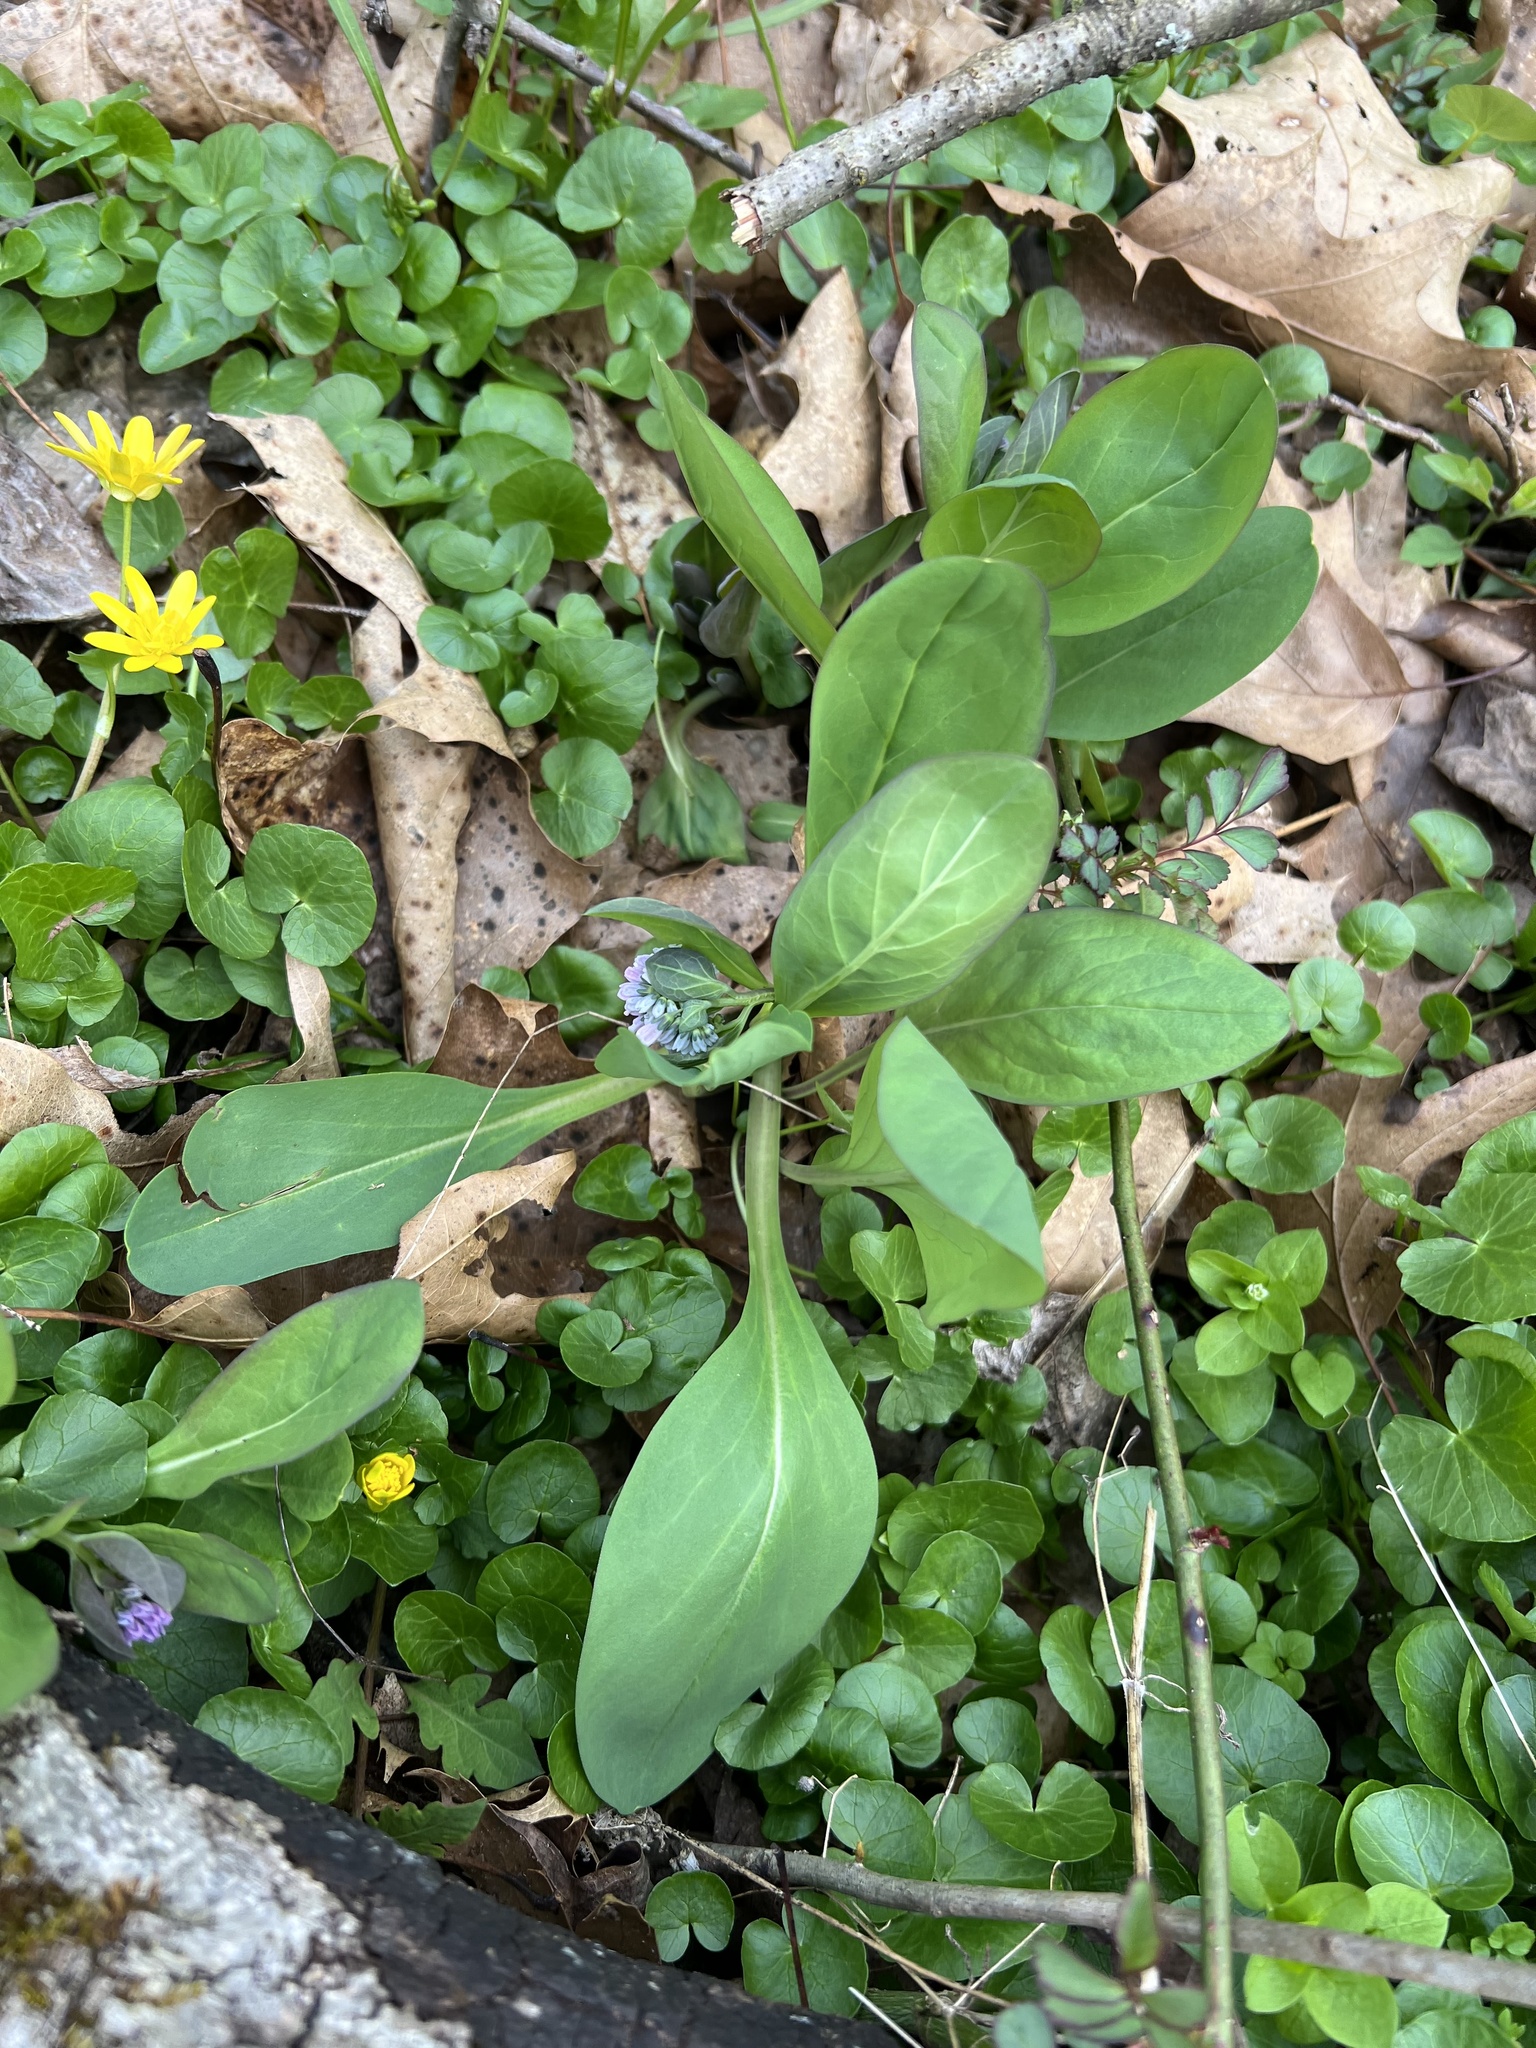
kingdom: Plantae
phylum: Tracheophyta
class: Magnoliopsida
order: Boraginales
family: Boraginaceae
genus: Mertensia
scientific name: Mertensia virginica
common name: Virginia bluebells
